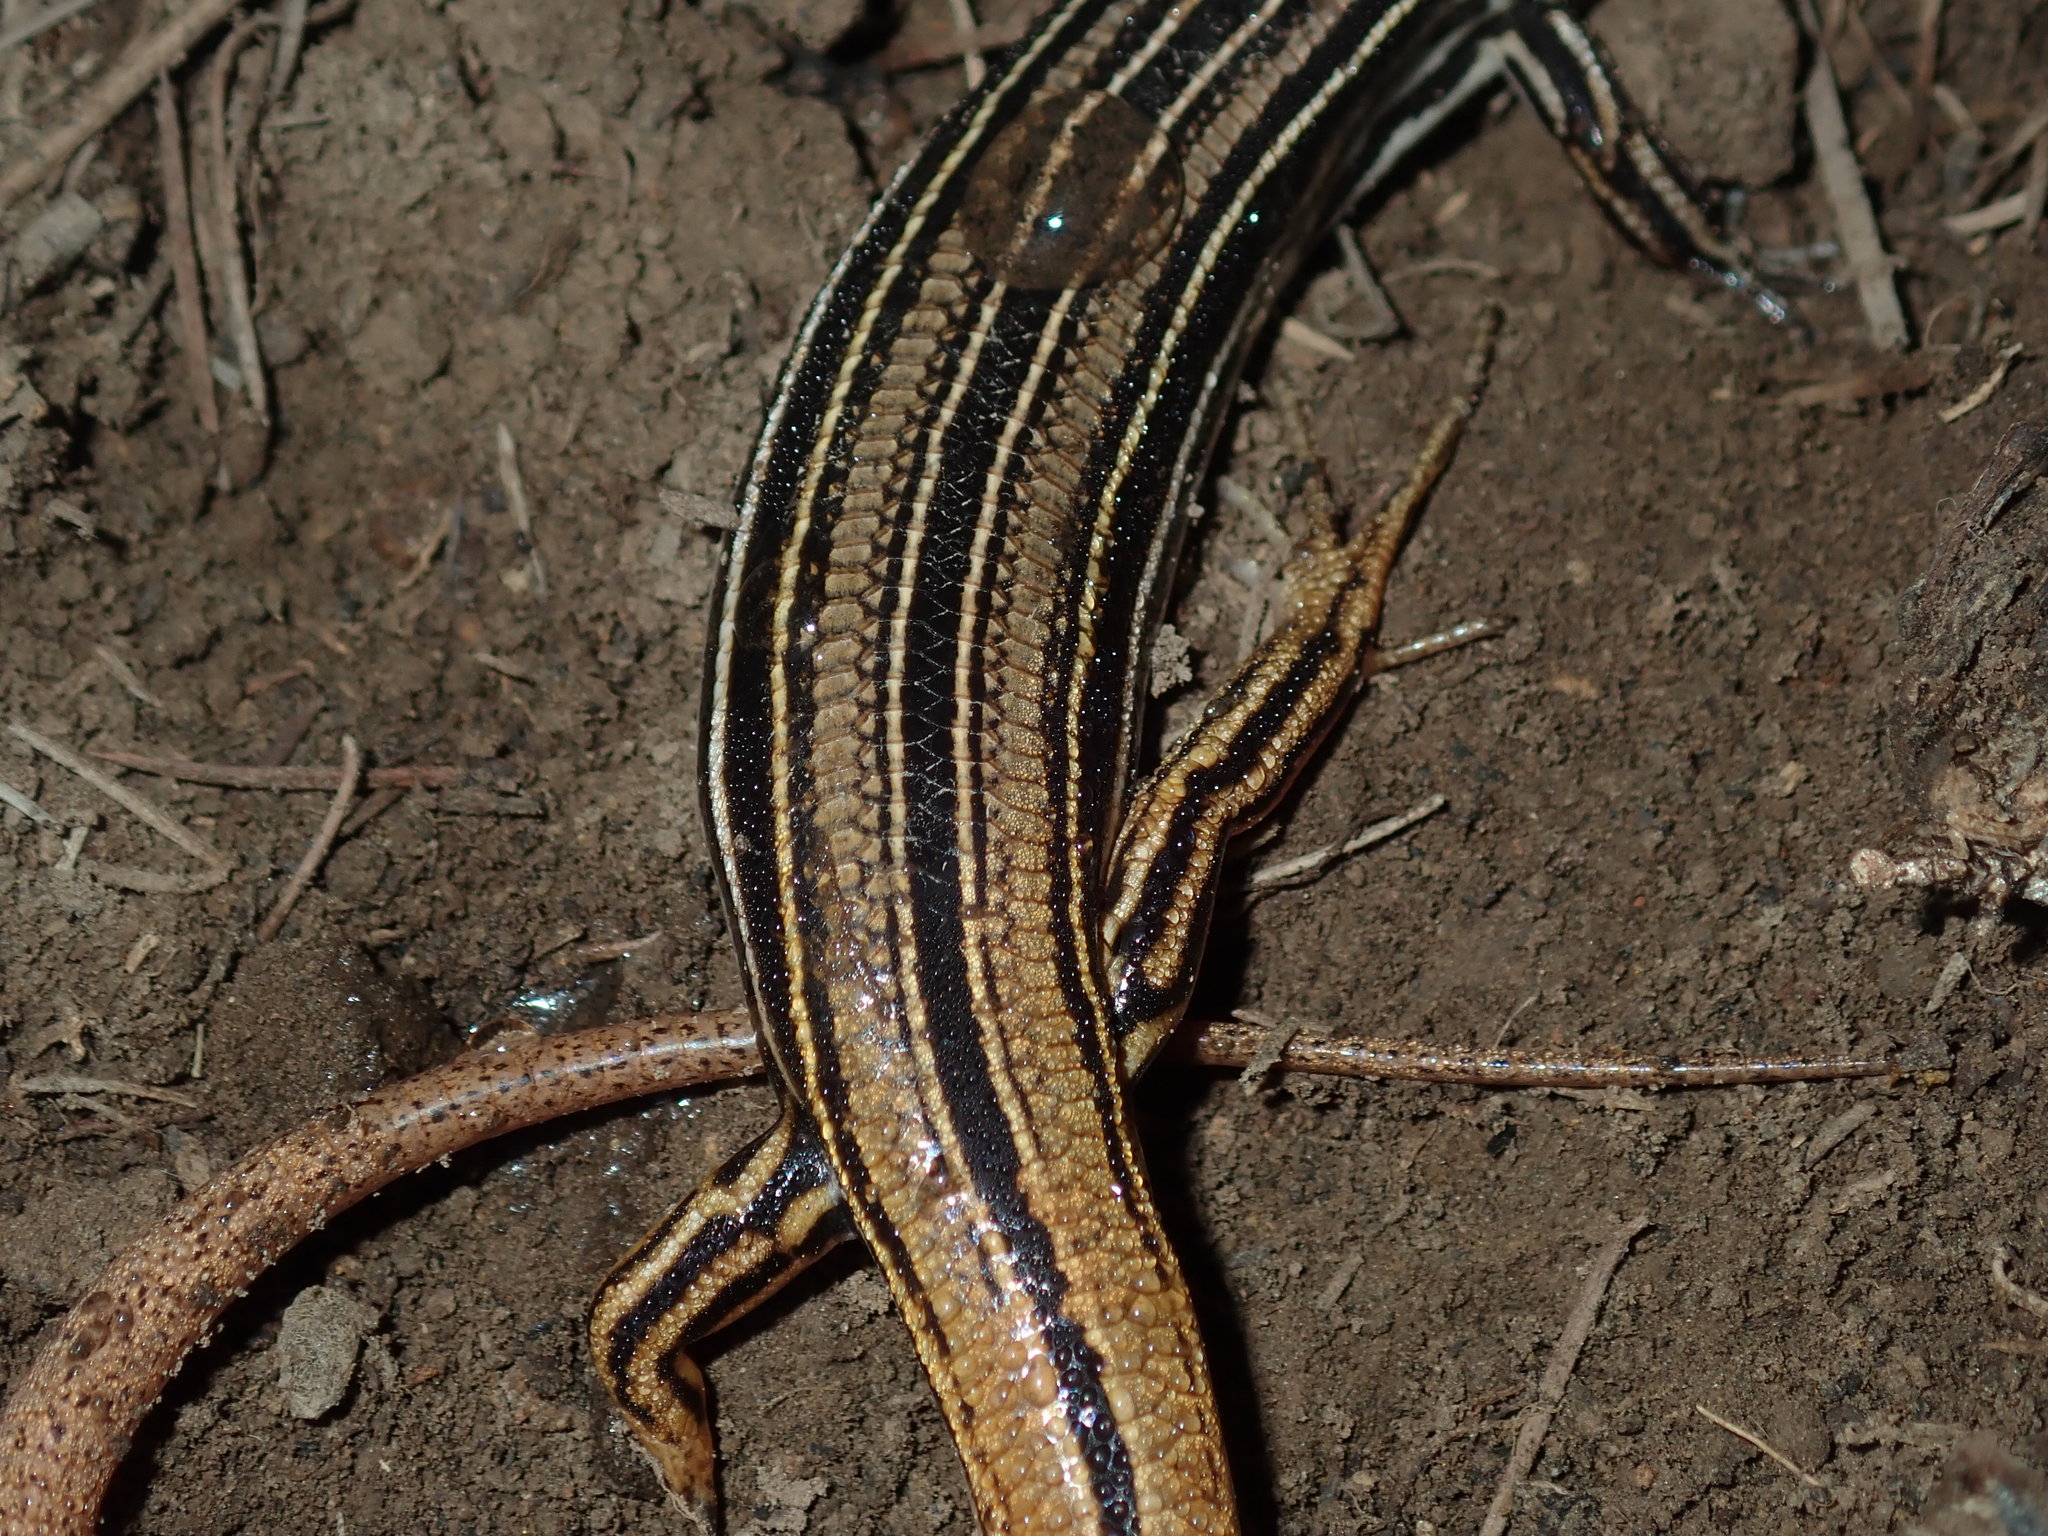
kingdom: Animalia
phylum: Chordata
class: Squamata
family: Scincidae
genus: Ctenotus
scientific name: Ctenotus taeniolatus
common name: Copper-tailed skink
